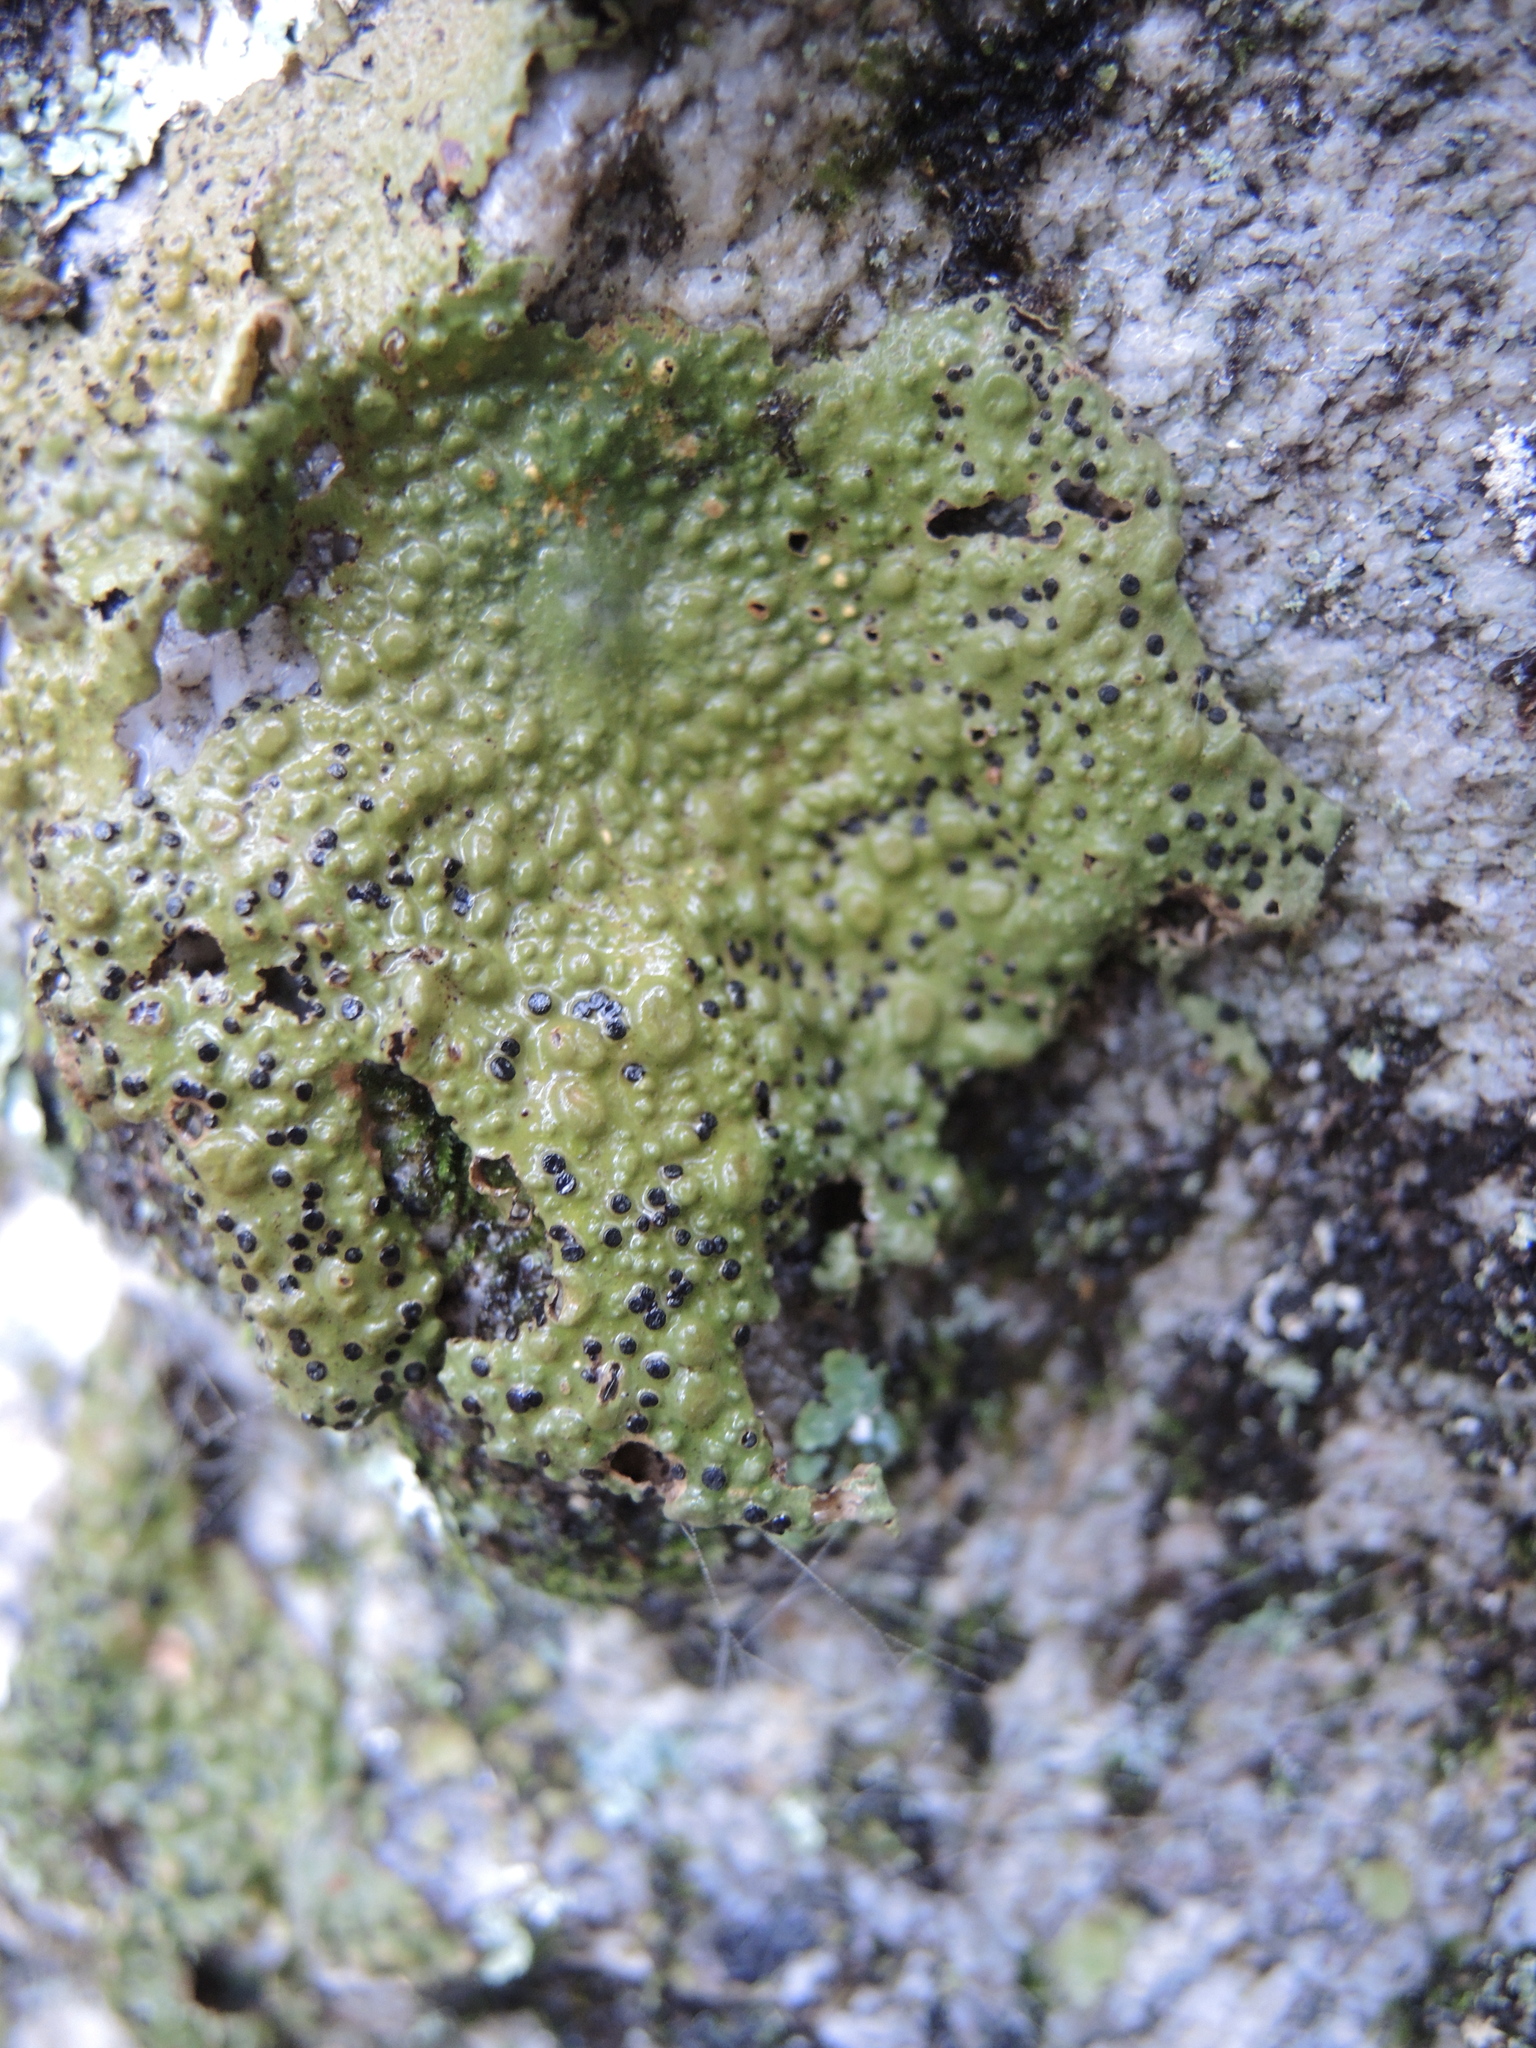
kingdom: Fungi
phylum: Ascomycota
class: Lecanoromycetes
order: Umbilicariales
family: Umbilicariaceae
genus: Lasallia
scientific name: Lasallia papulosa
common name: Common toadskin lichen
